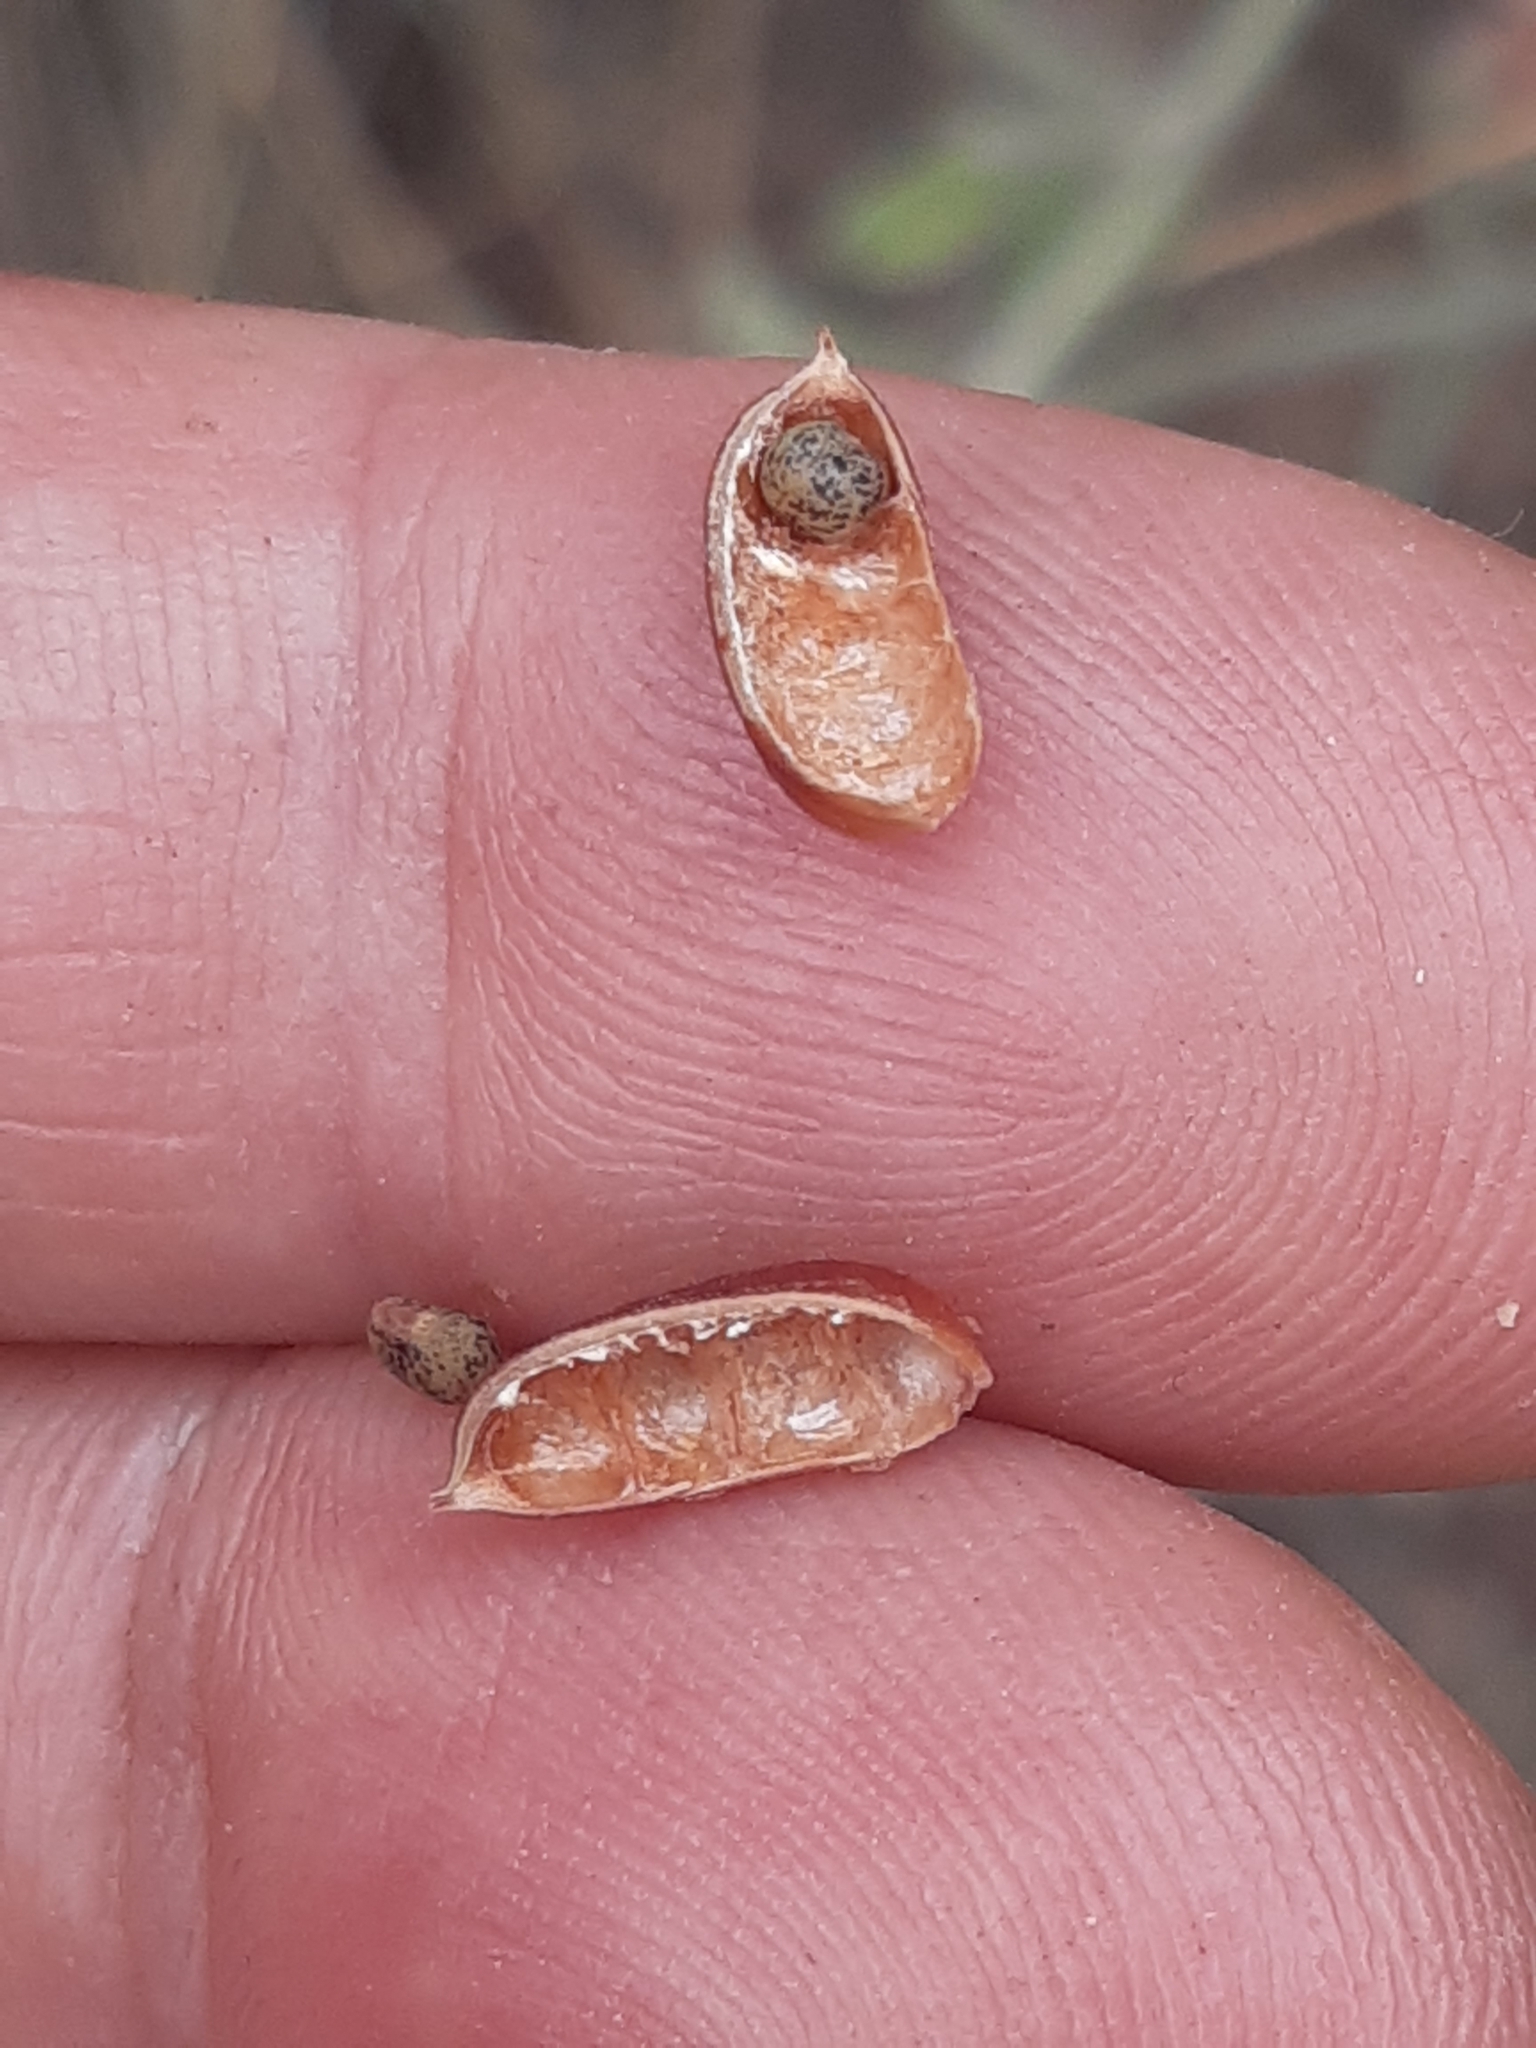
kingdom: Plantae
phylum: Tracheophyta
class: Magnoliopsida
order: Fabales
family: Fabaceae
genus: Lotus
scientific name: Lotus hirsutus
